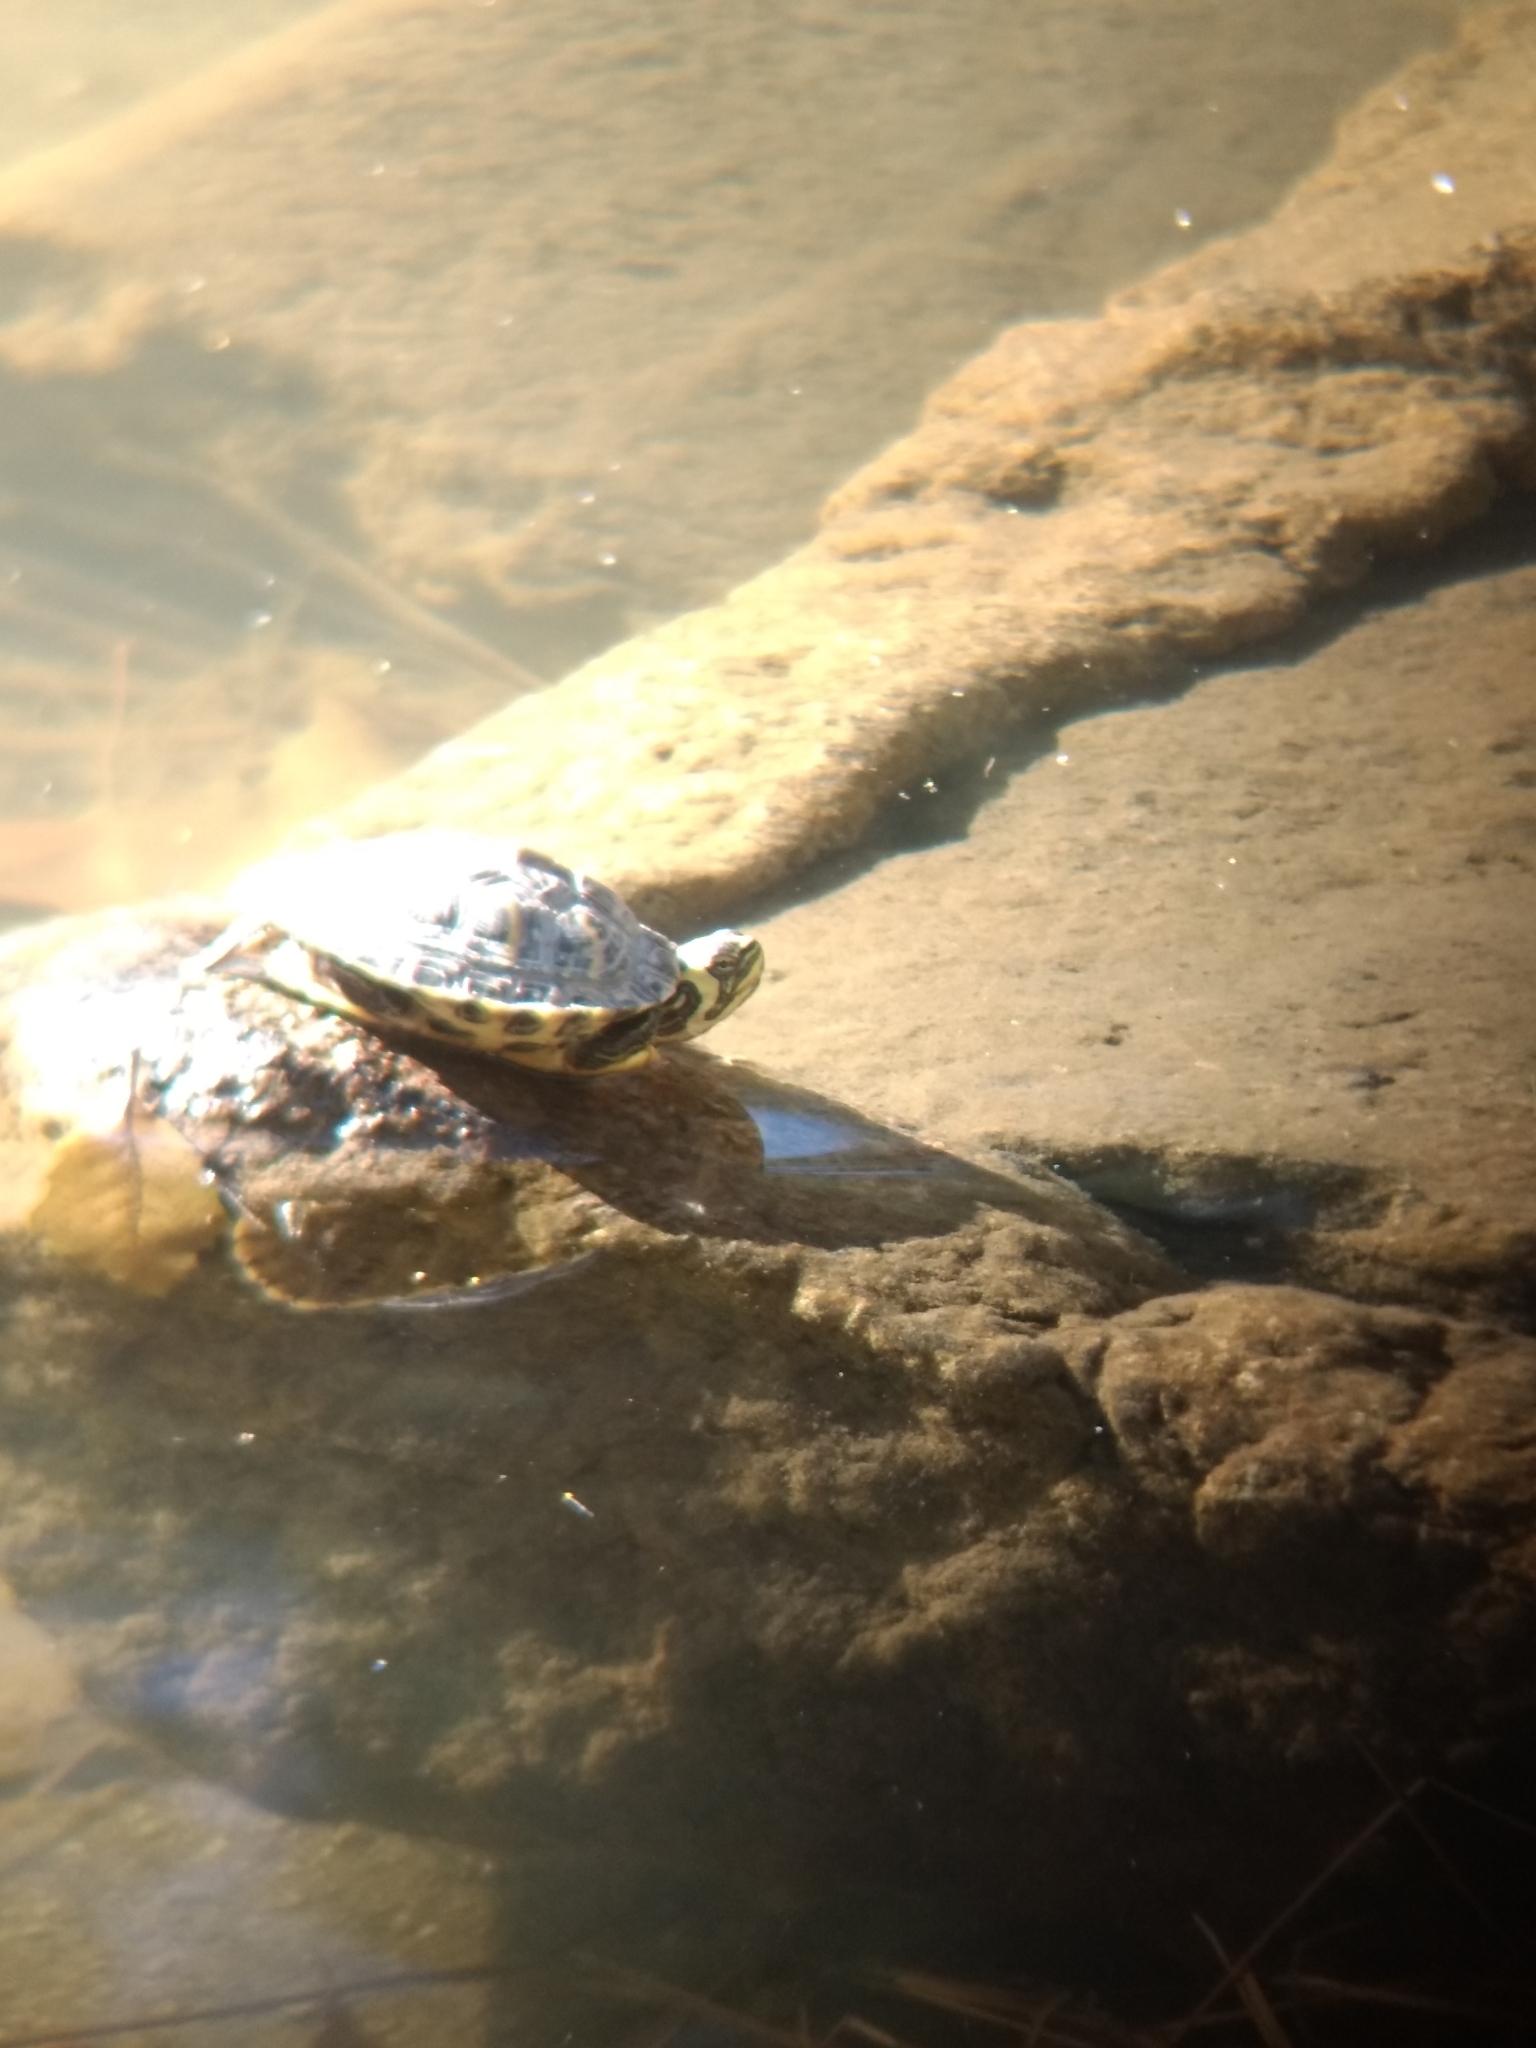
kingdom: Animalia
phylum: Chordata
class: Testudines
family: Emydidae
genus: Trachemys
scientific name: Trachemys scripta
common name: Slider
